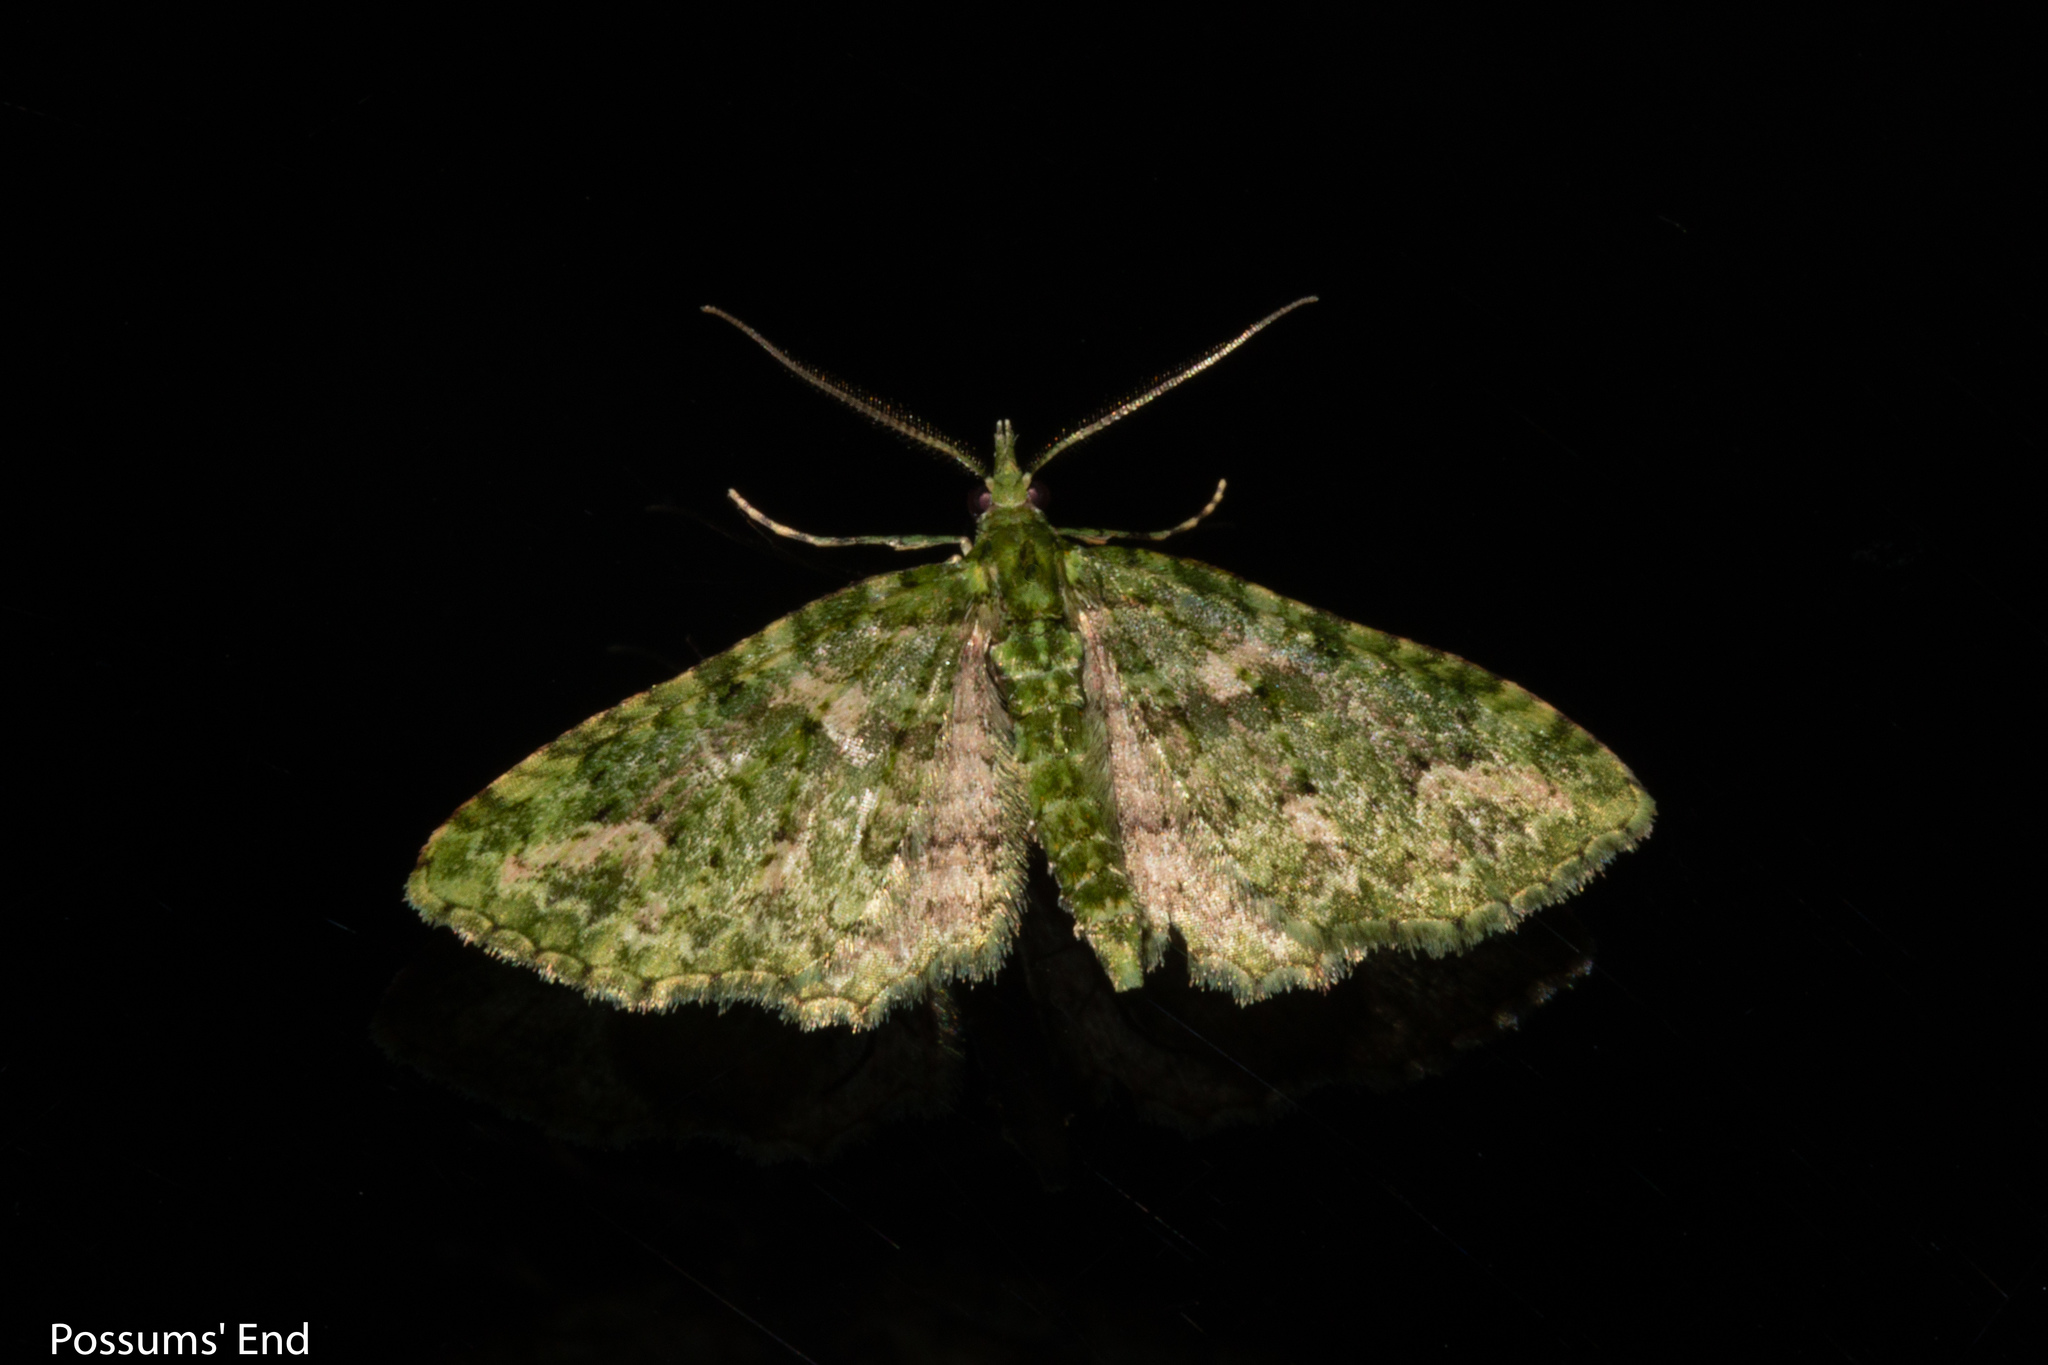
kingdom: Animalia
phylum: Arthropoda
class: Insecta
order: Lepidoptera
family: Geometridae
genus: Pasiphila
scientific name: Pasiphila muscosata
